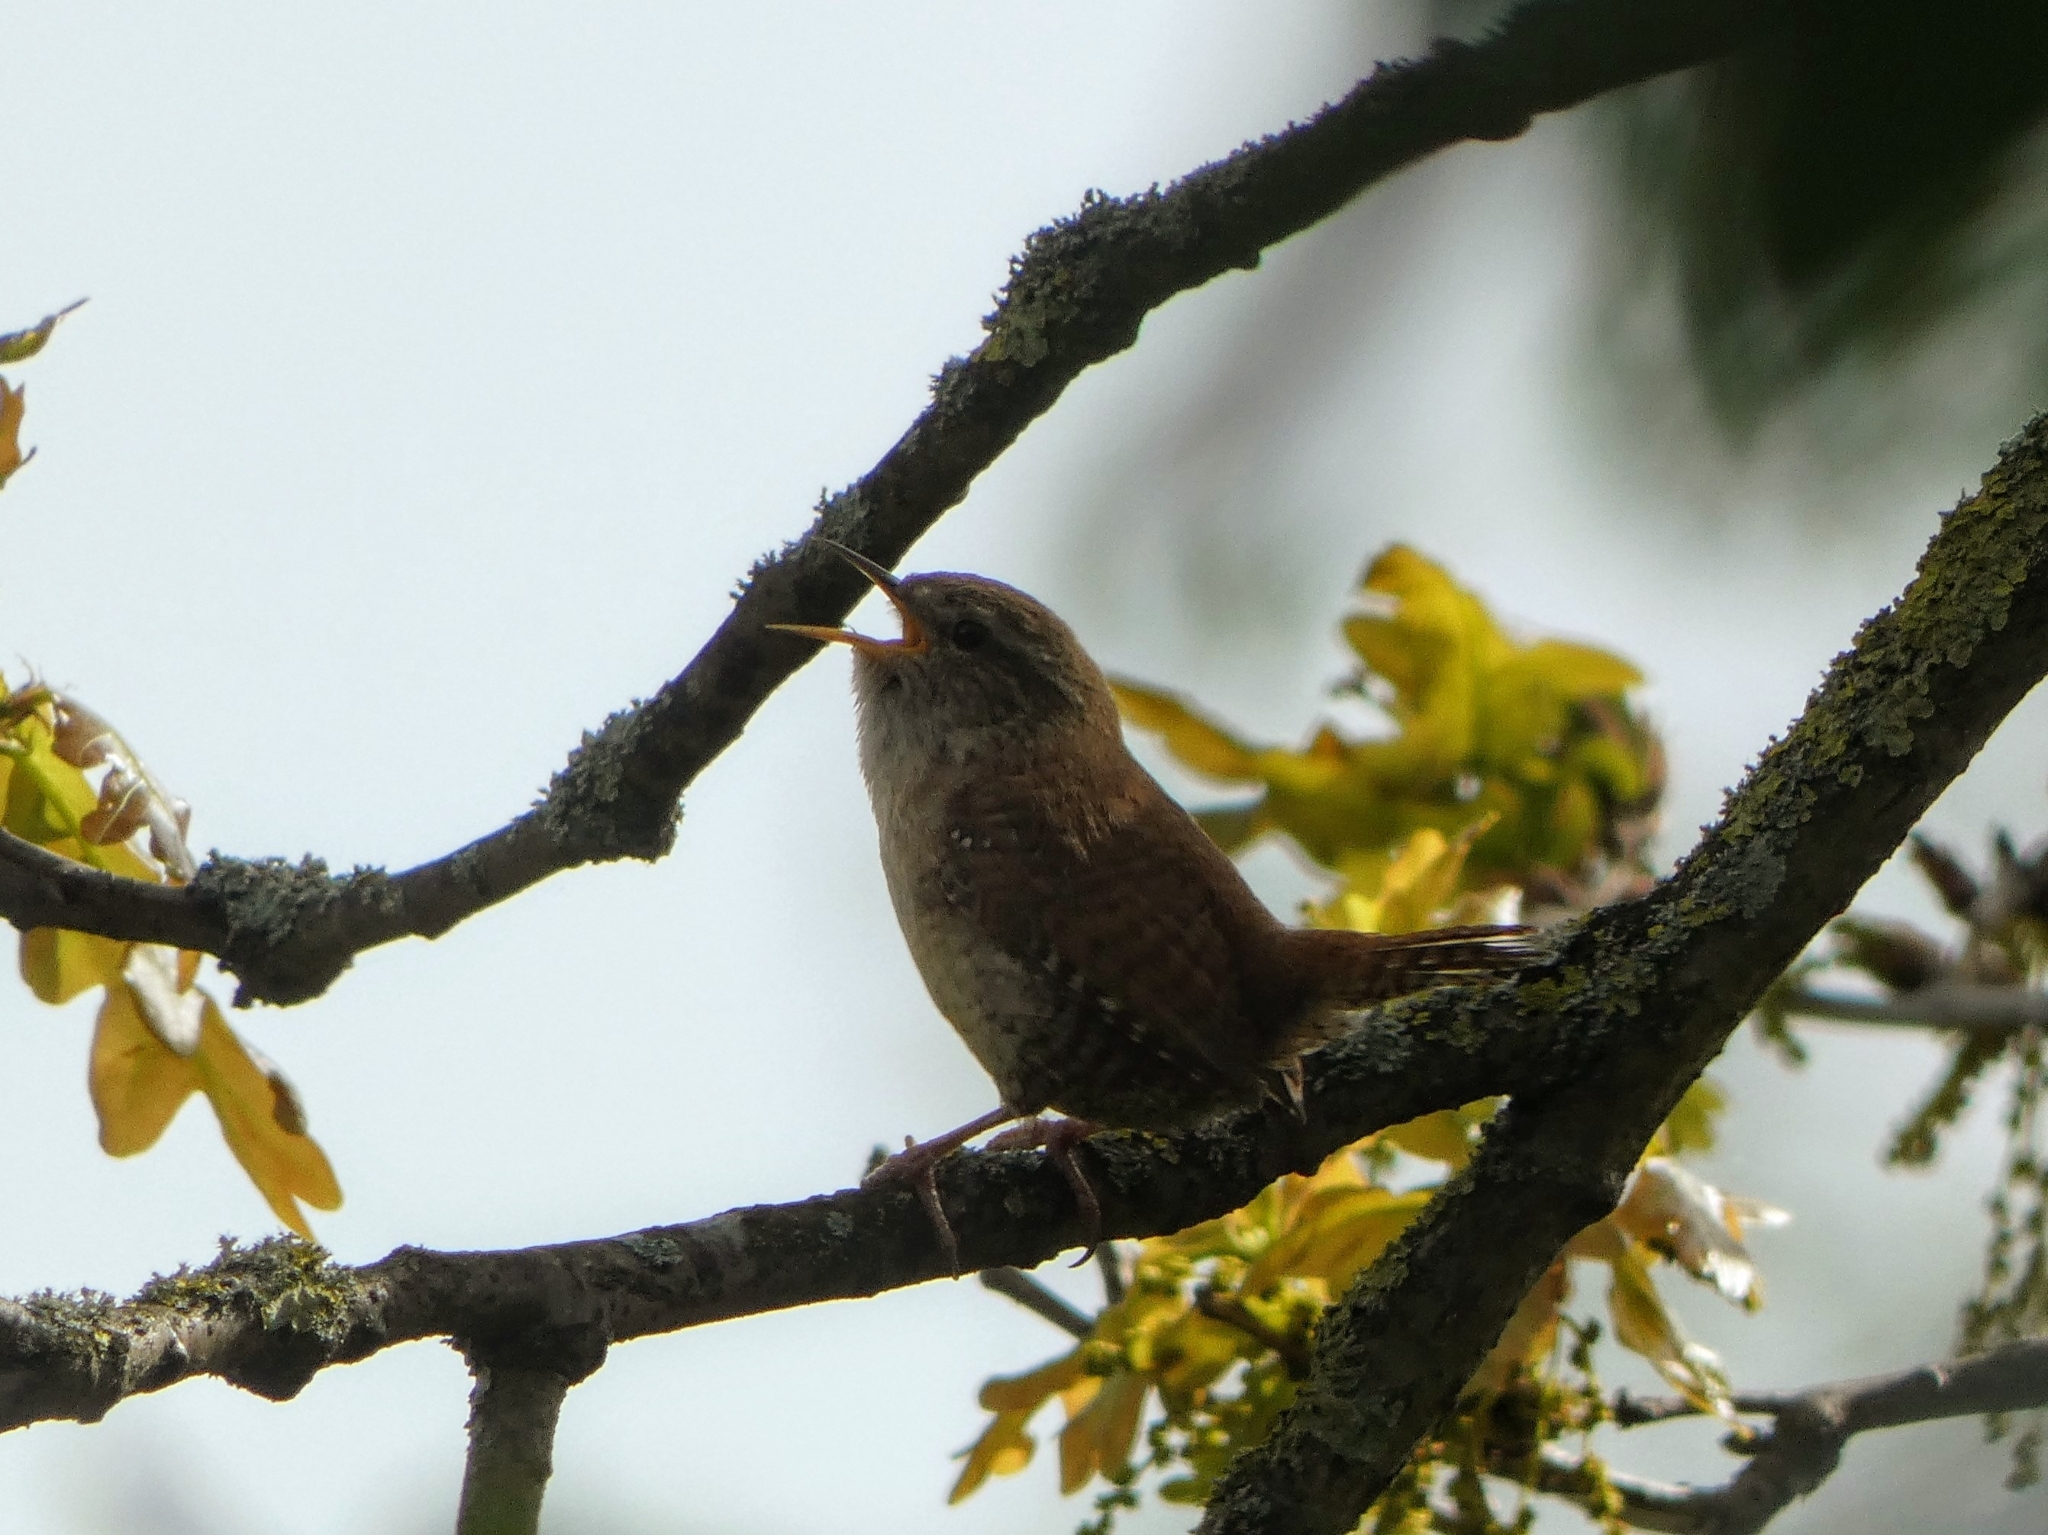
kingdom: Animalia
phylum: Chordata
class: Aves
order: Passeriformes
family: Troglodytidae
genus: Troglodytes
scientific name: Troglodytes troglodytes
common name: Eurasian wren
